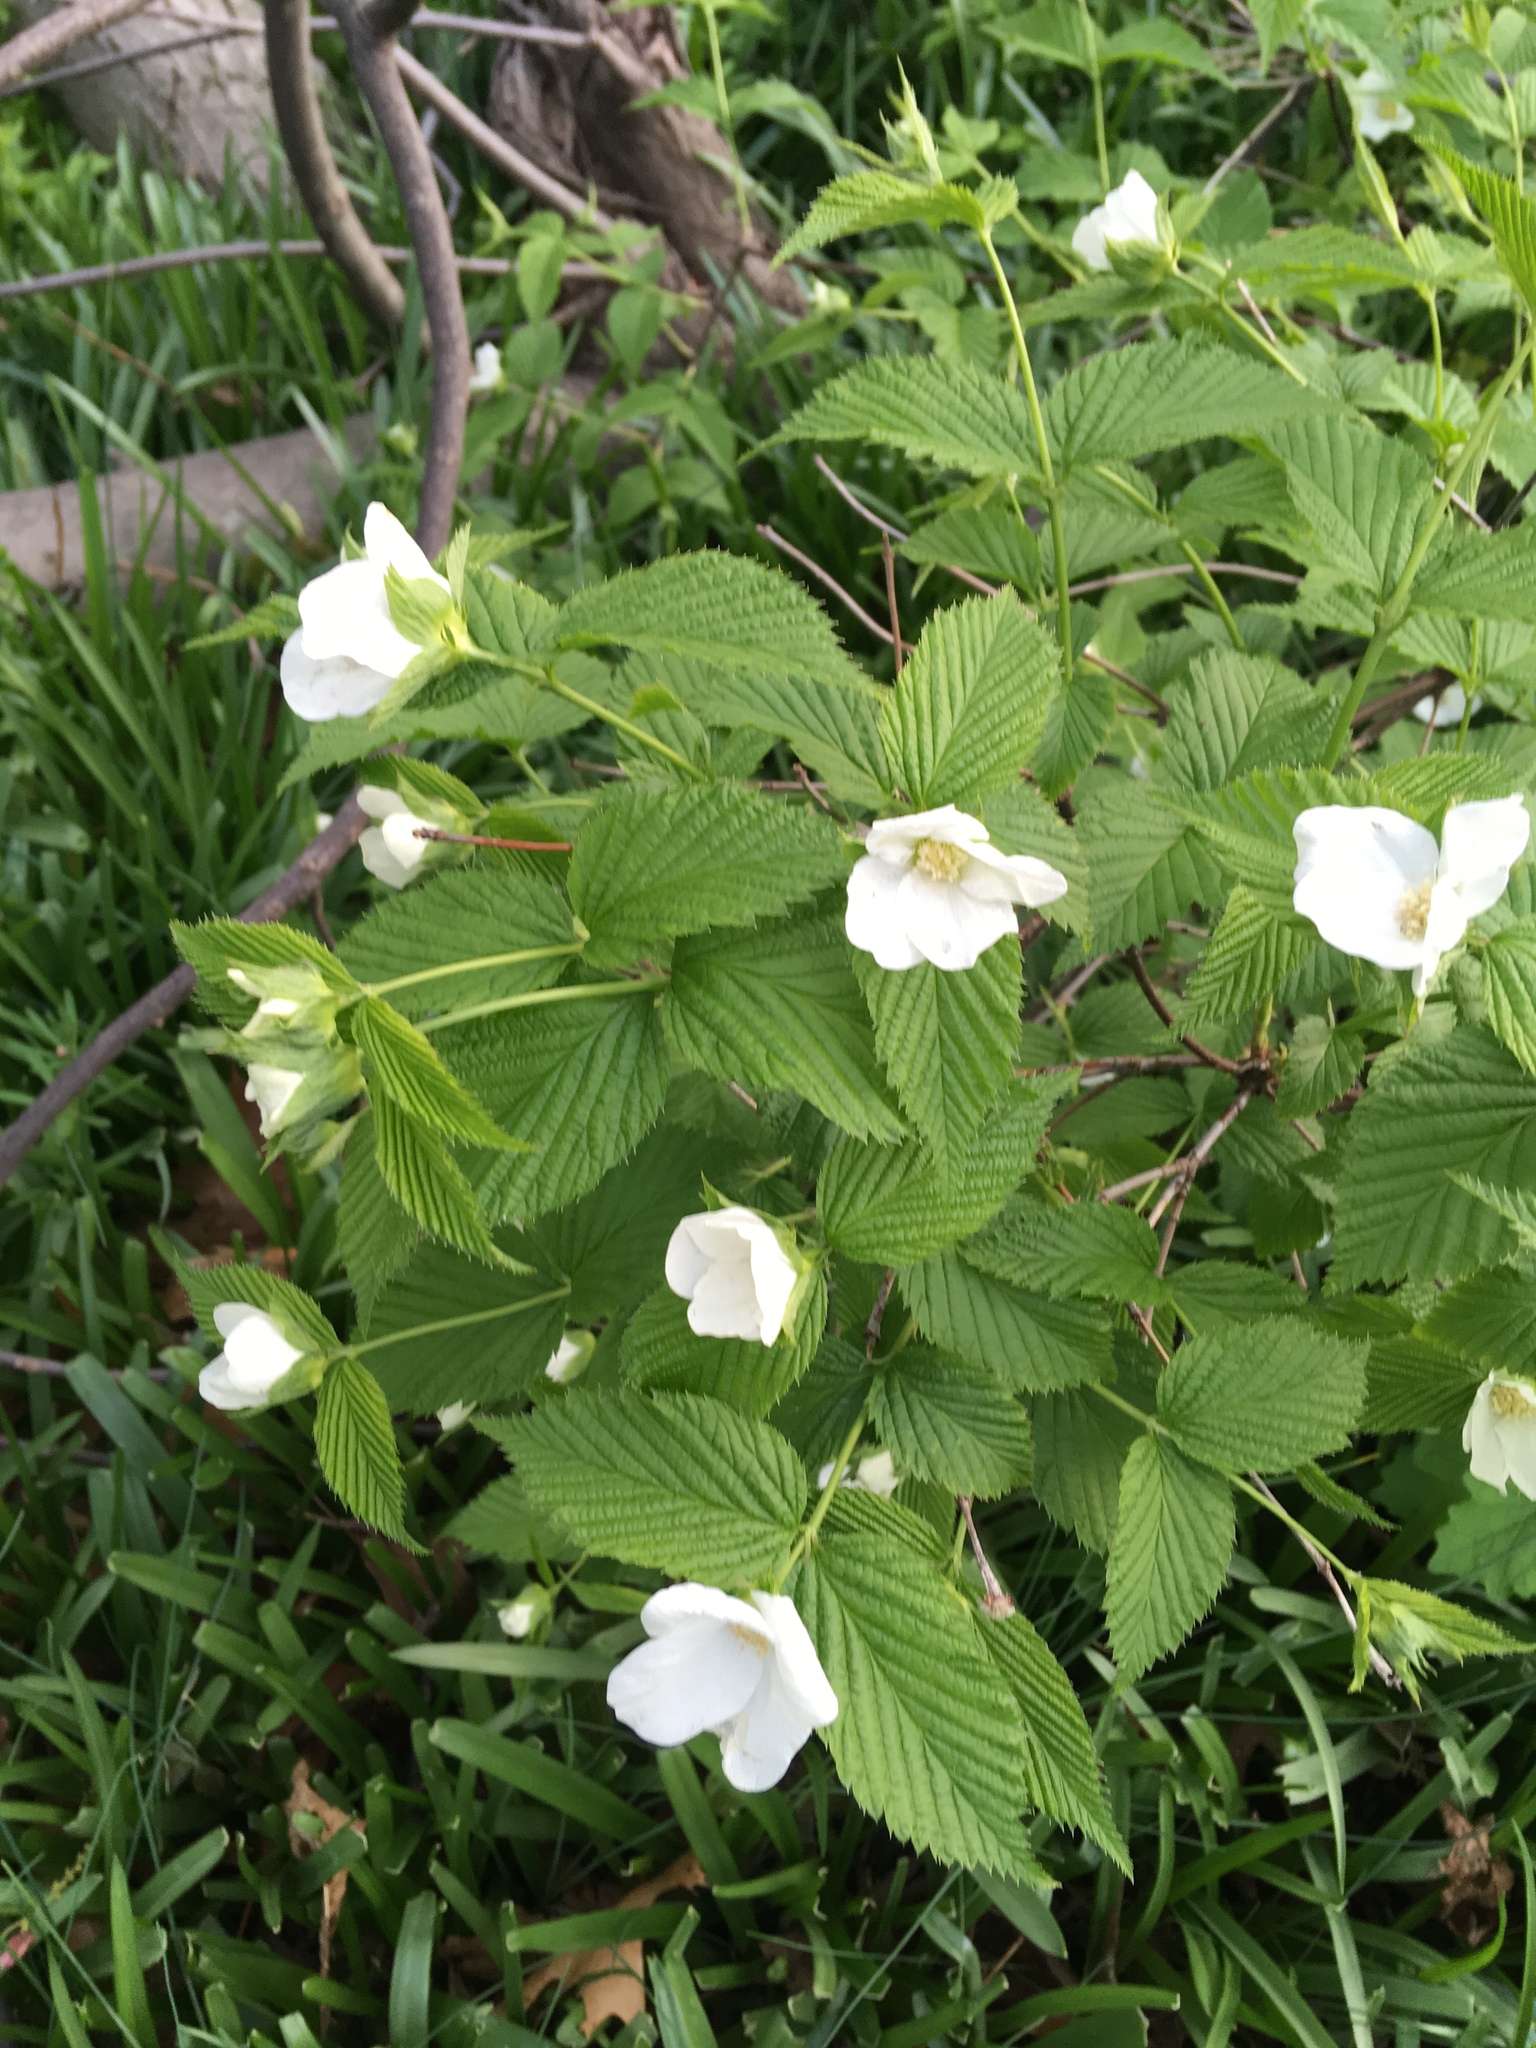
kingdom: Plantae
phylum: Tracheophyta
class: Magnoliopsida
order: Rosales
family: Rosaceae
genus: Rhodotypos
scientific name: Rhodotypos scandens
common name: Jetbead
